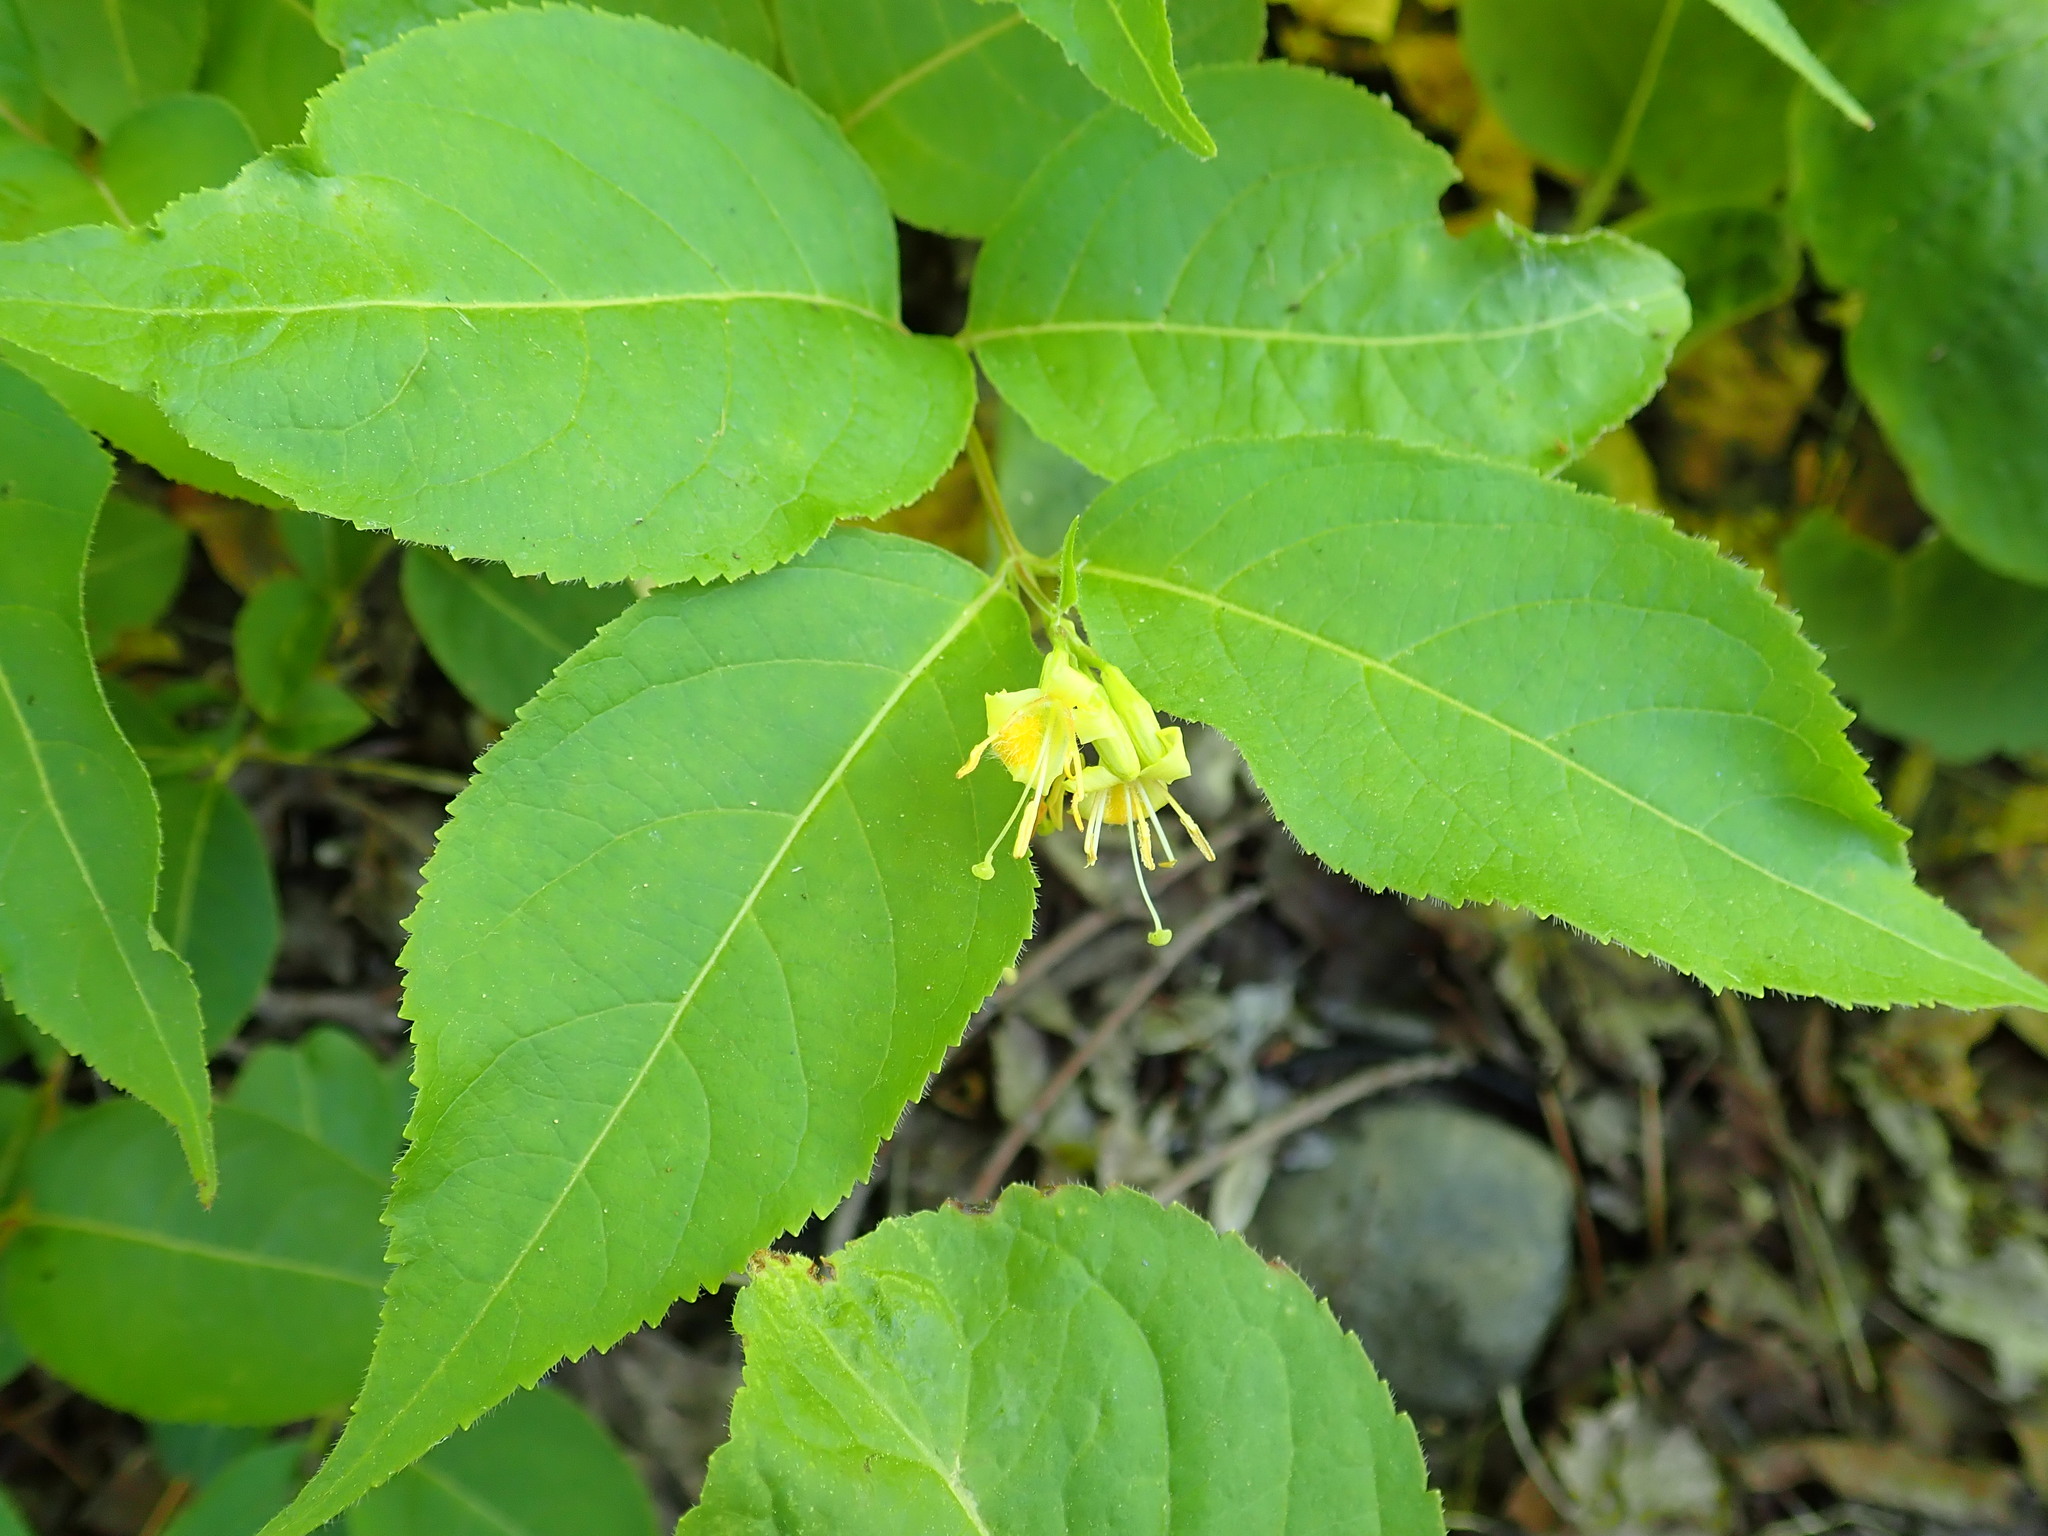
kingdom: Plantae
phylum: Tracheophyta
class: Magnoliopsida
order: Dipsacales
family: Caprifoliaceae
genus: Diervilla
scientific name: Diervilla lonicera
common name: Bush-honeysuckle
